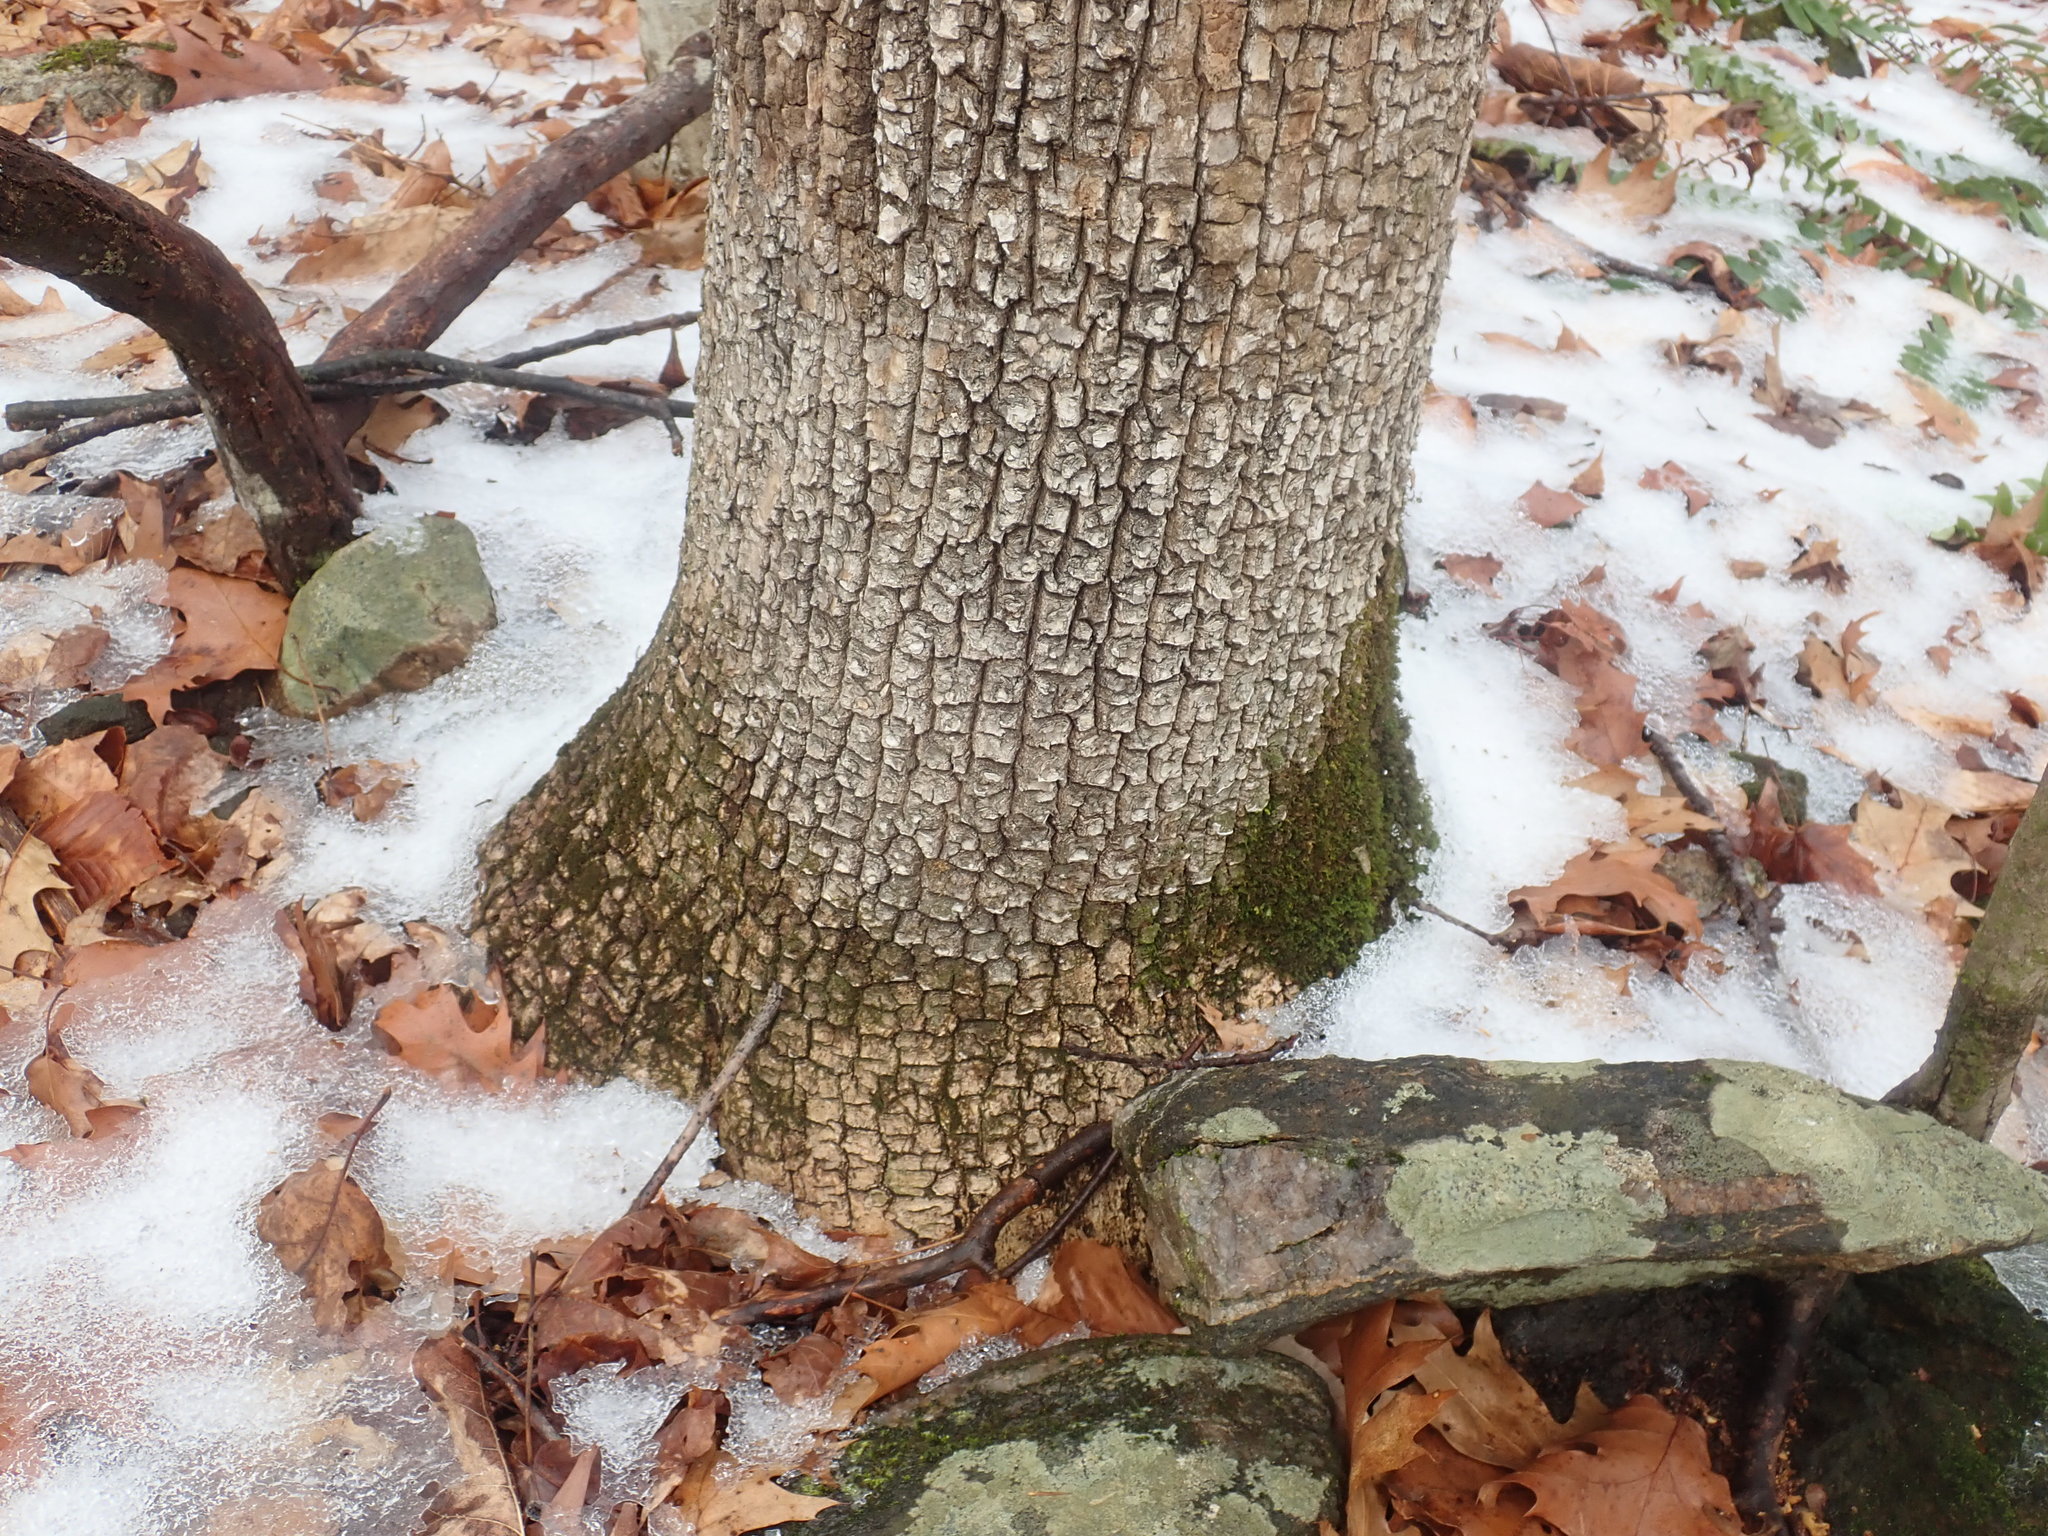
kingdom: Plantae
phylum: Tracheophyta
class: Magnoliopsida
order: Lamiales
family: Oleaceae
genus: Fraxinus
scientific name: Fraxinus
